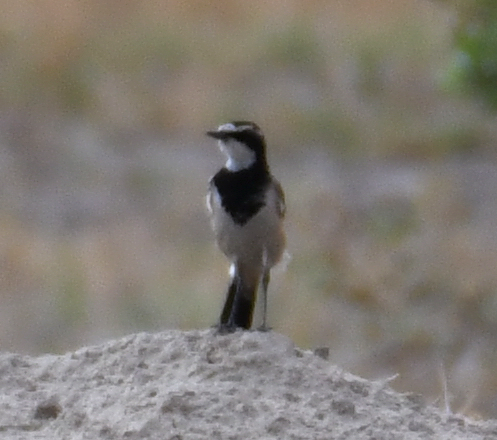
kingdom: Animalia
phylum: Chordata
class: Aves
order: Passeriformes
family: Muscicapidae
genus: Oenanthe
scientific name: Oenanthe pileata
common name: Capped wheatear
